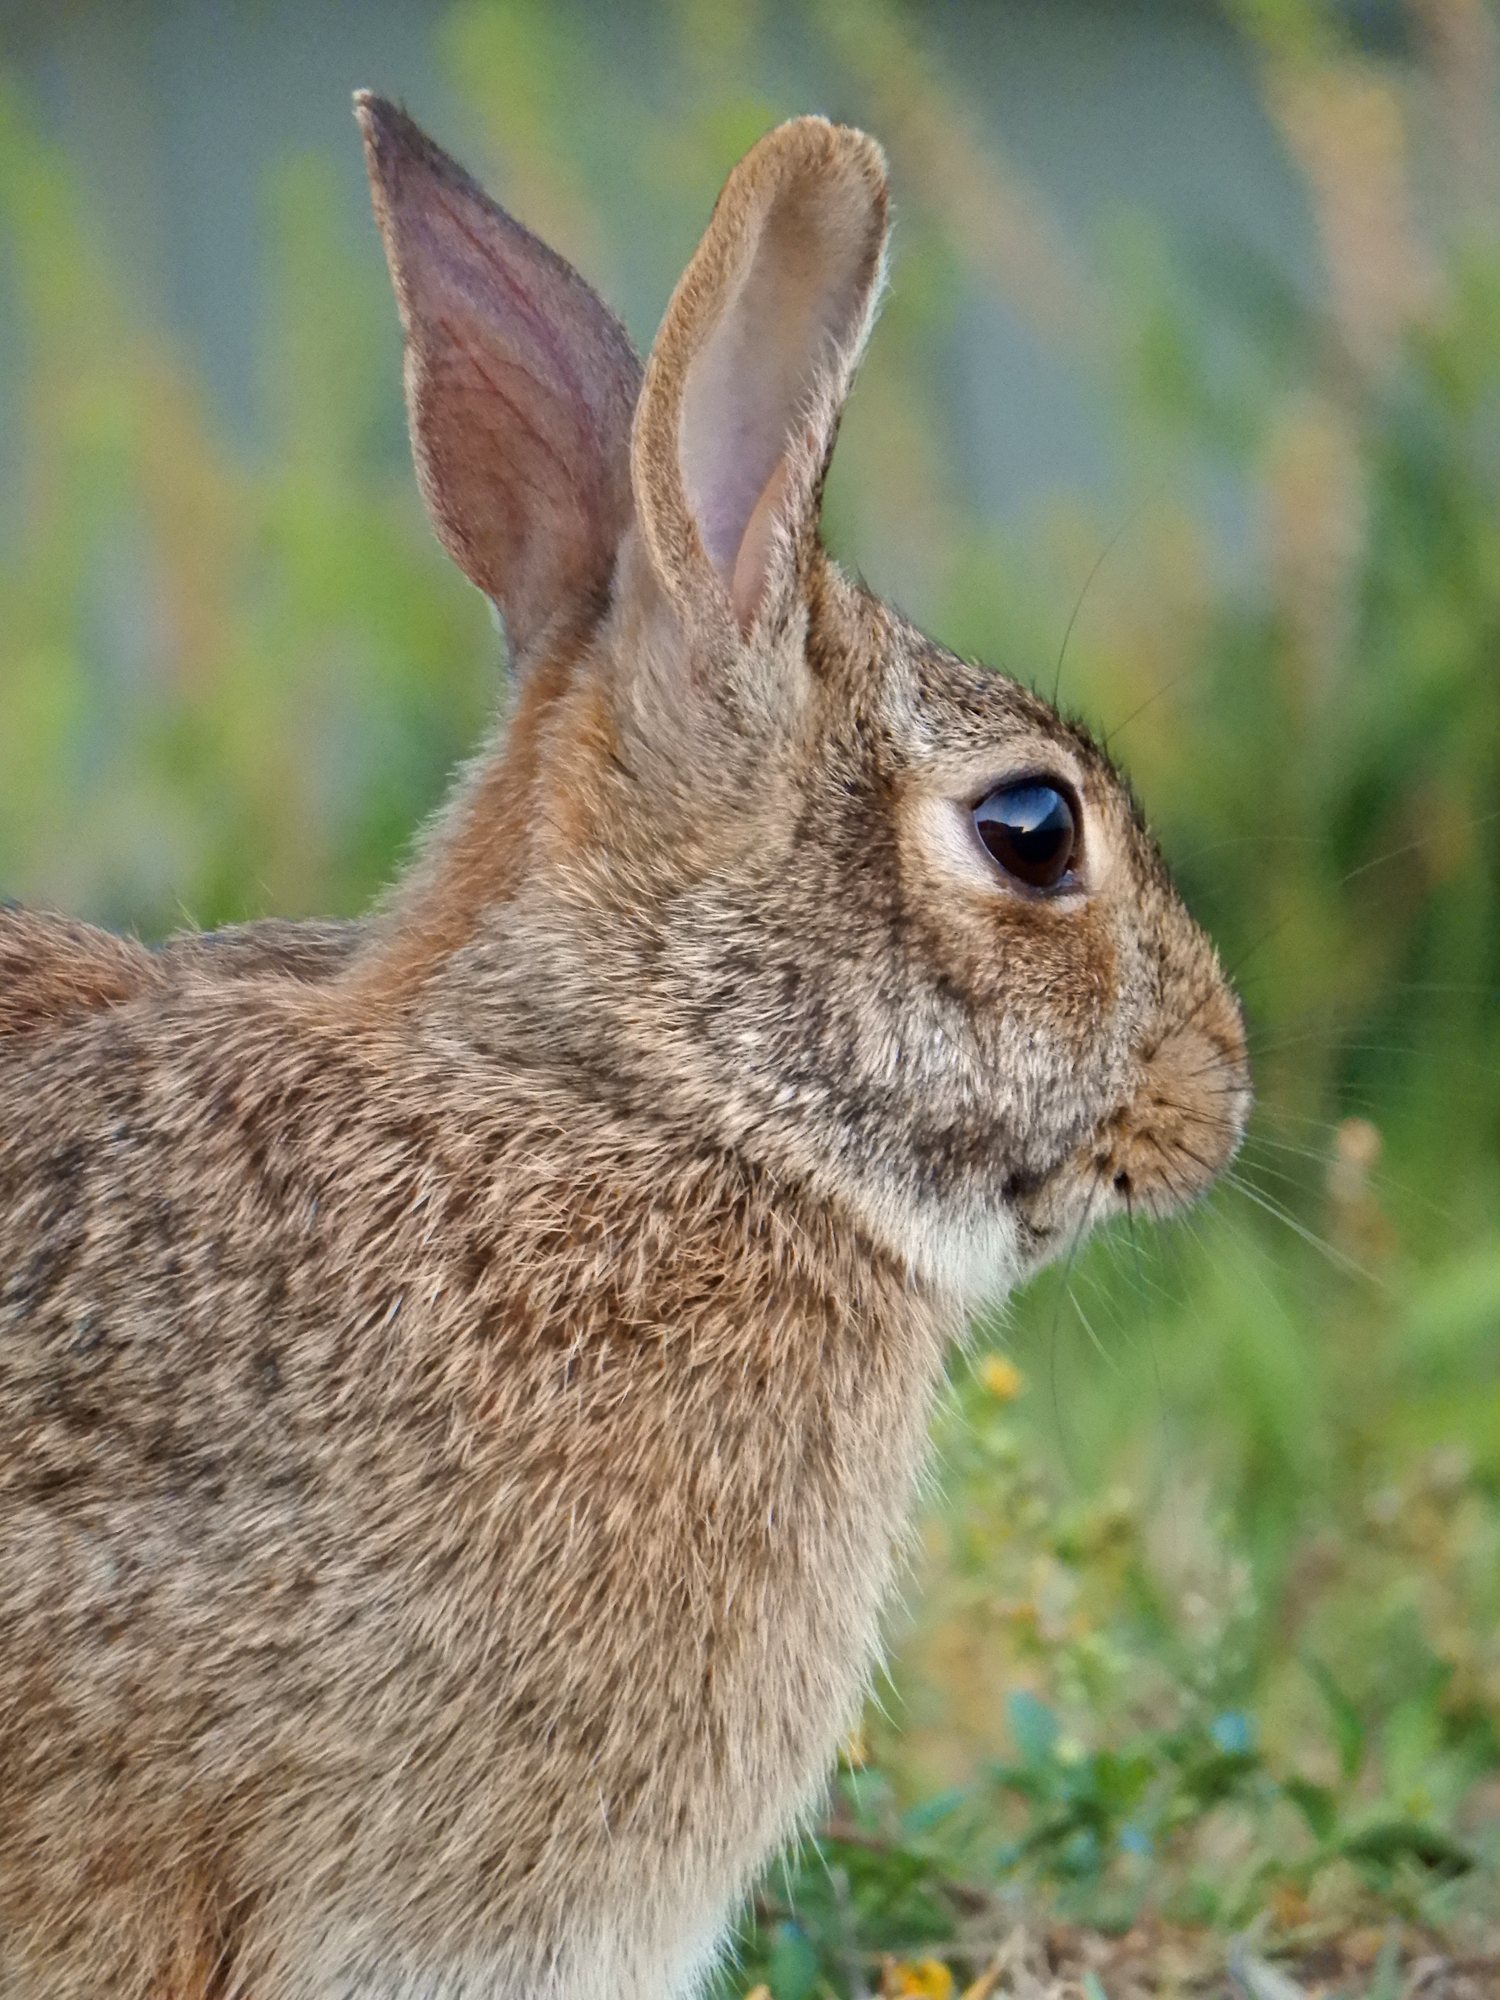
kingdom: Animalia
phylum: Chordata
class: Mammalia
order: Lagomorpha
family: Leporidae
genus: Sylvilagus
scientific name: Sylvilagus floridanus
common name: Eastern cottontail
